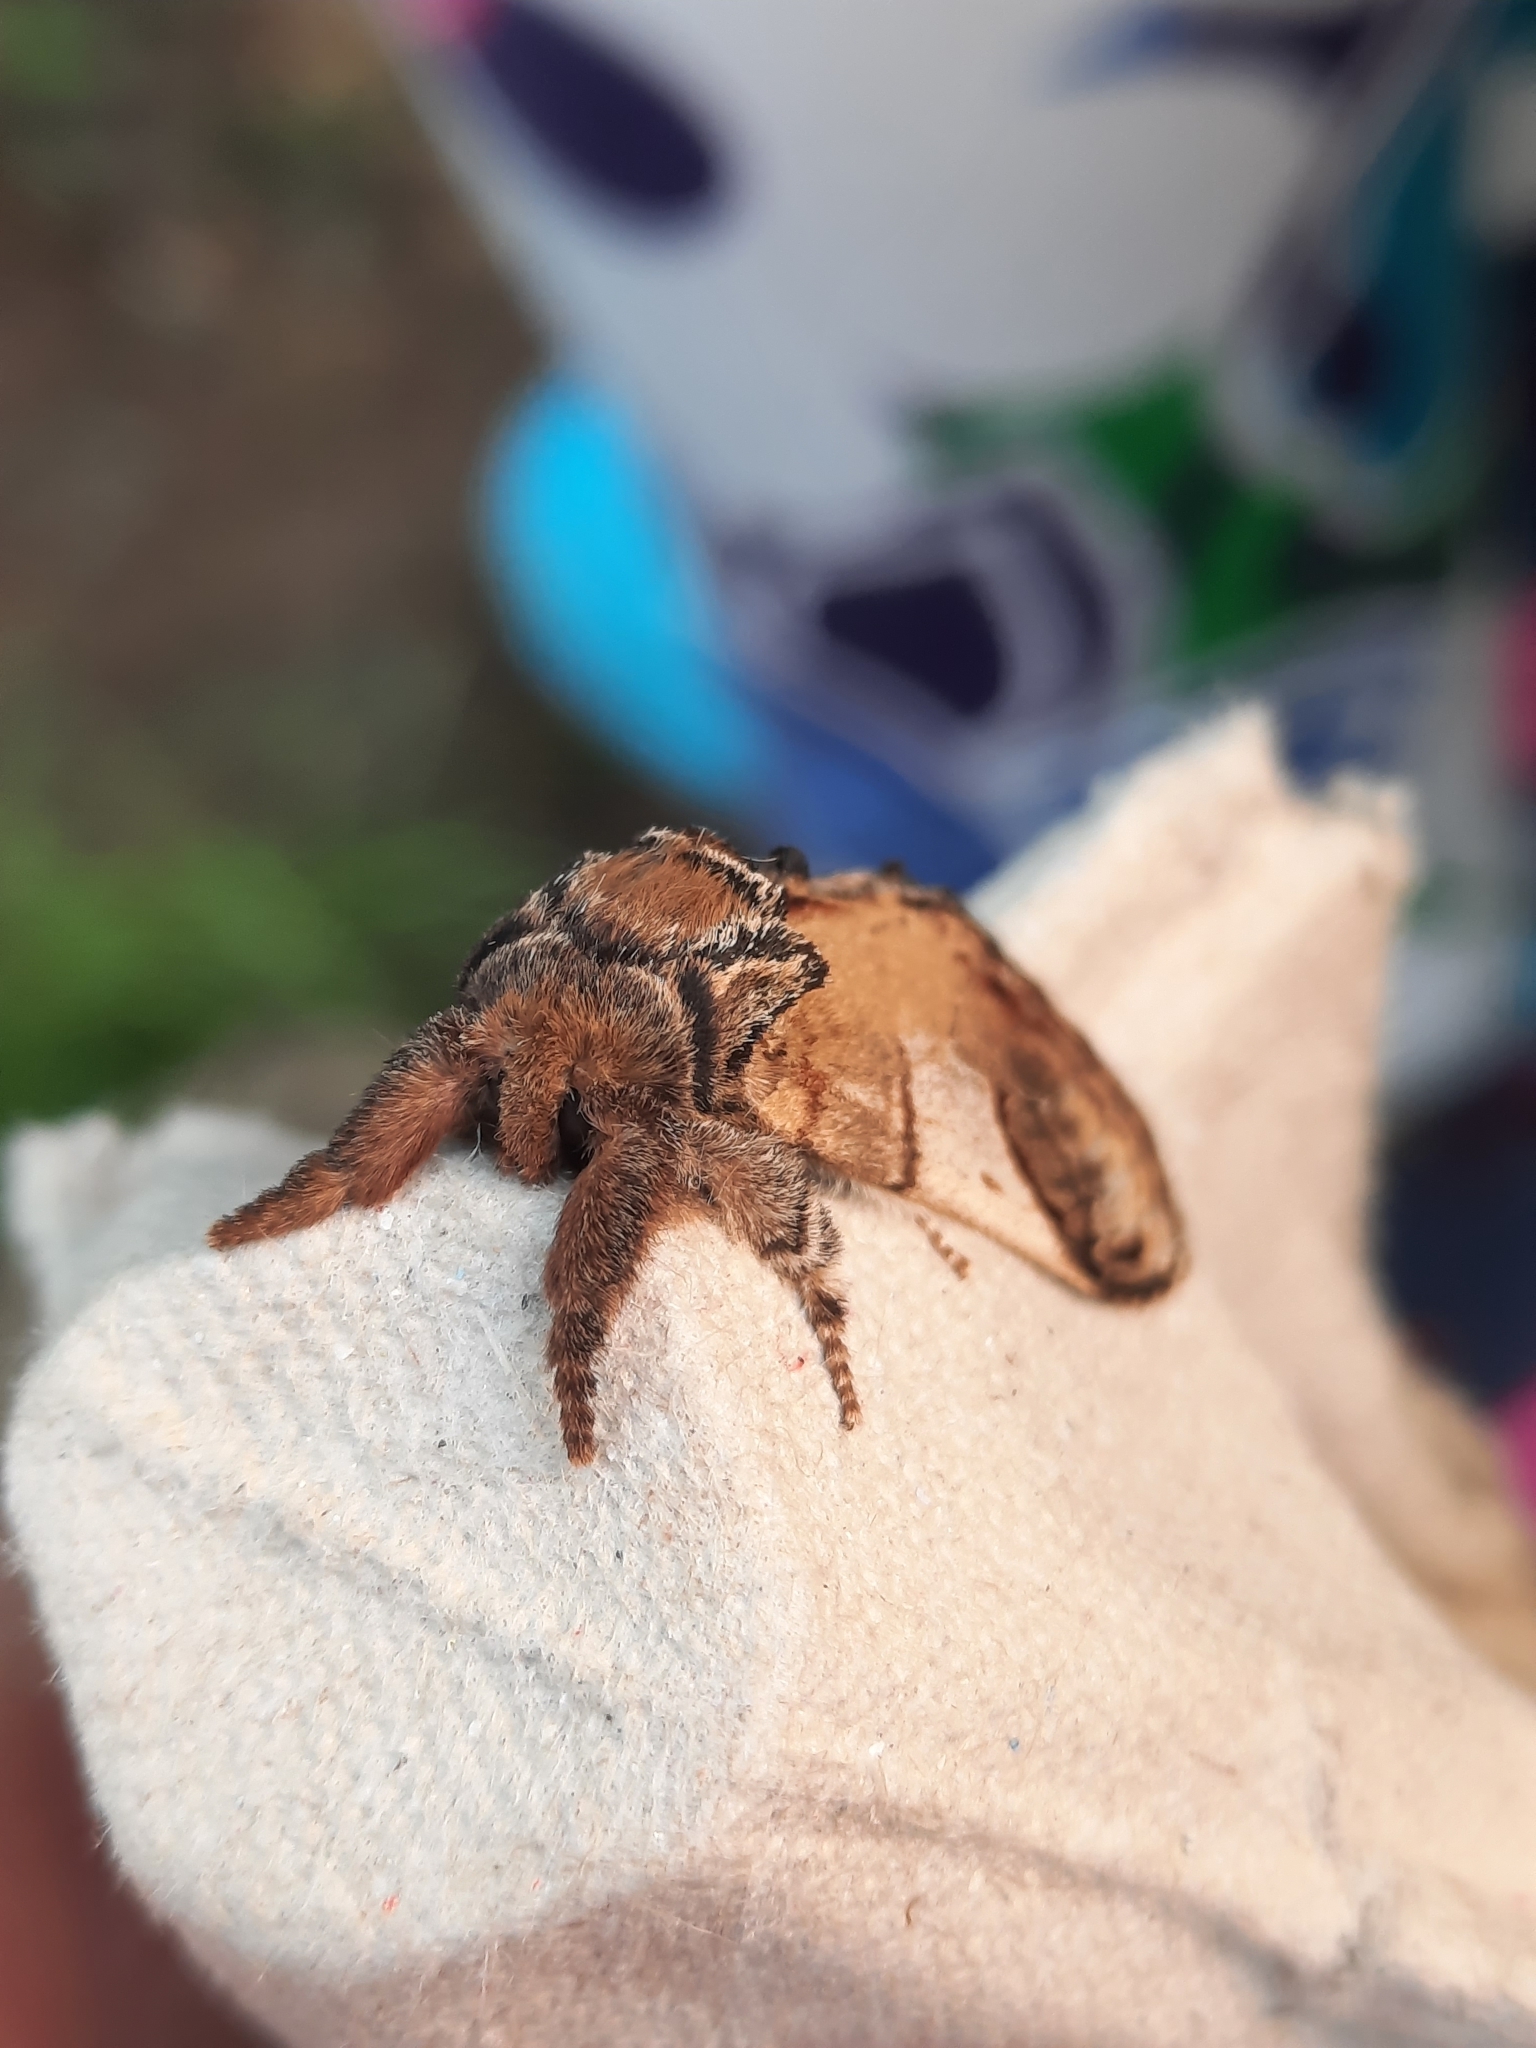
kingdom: Animalia
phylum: Arthropoda
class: Insecta
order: Lepidoptera
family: Notodontidae
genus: Notodonta
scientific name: Notodonta ziczac
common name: Pebble prominent
